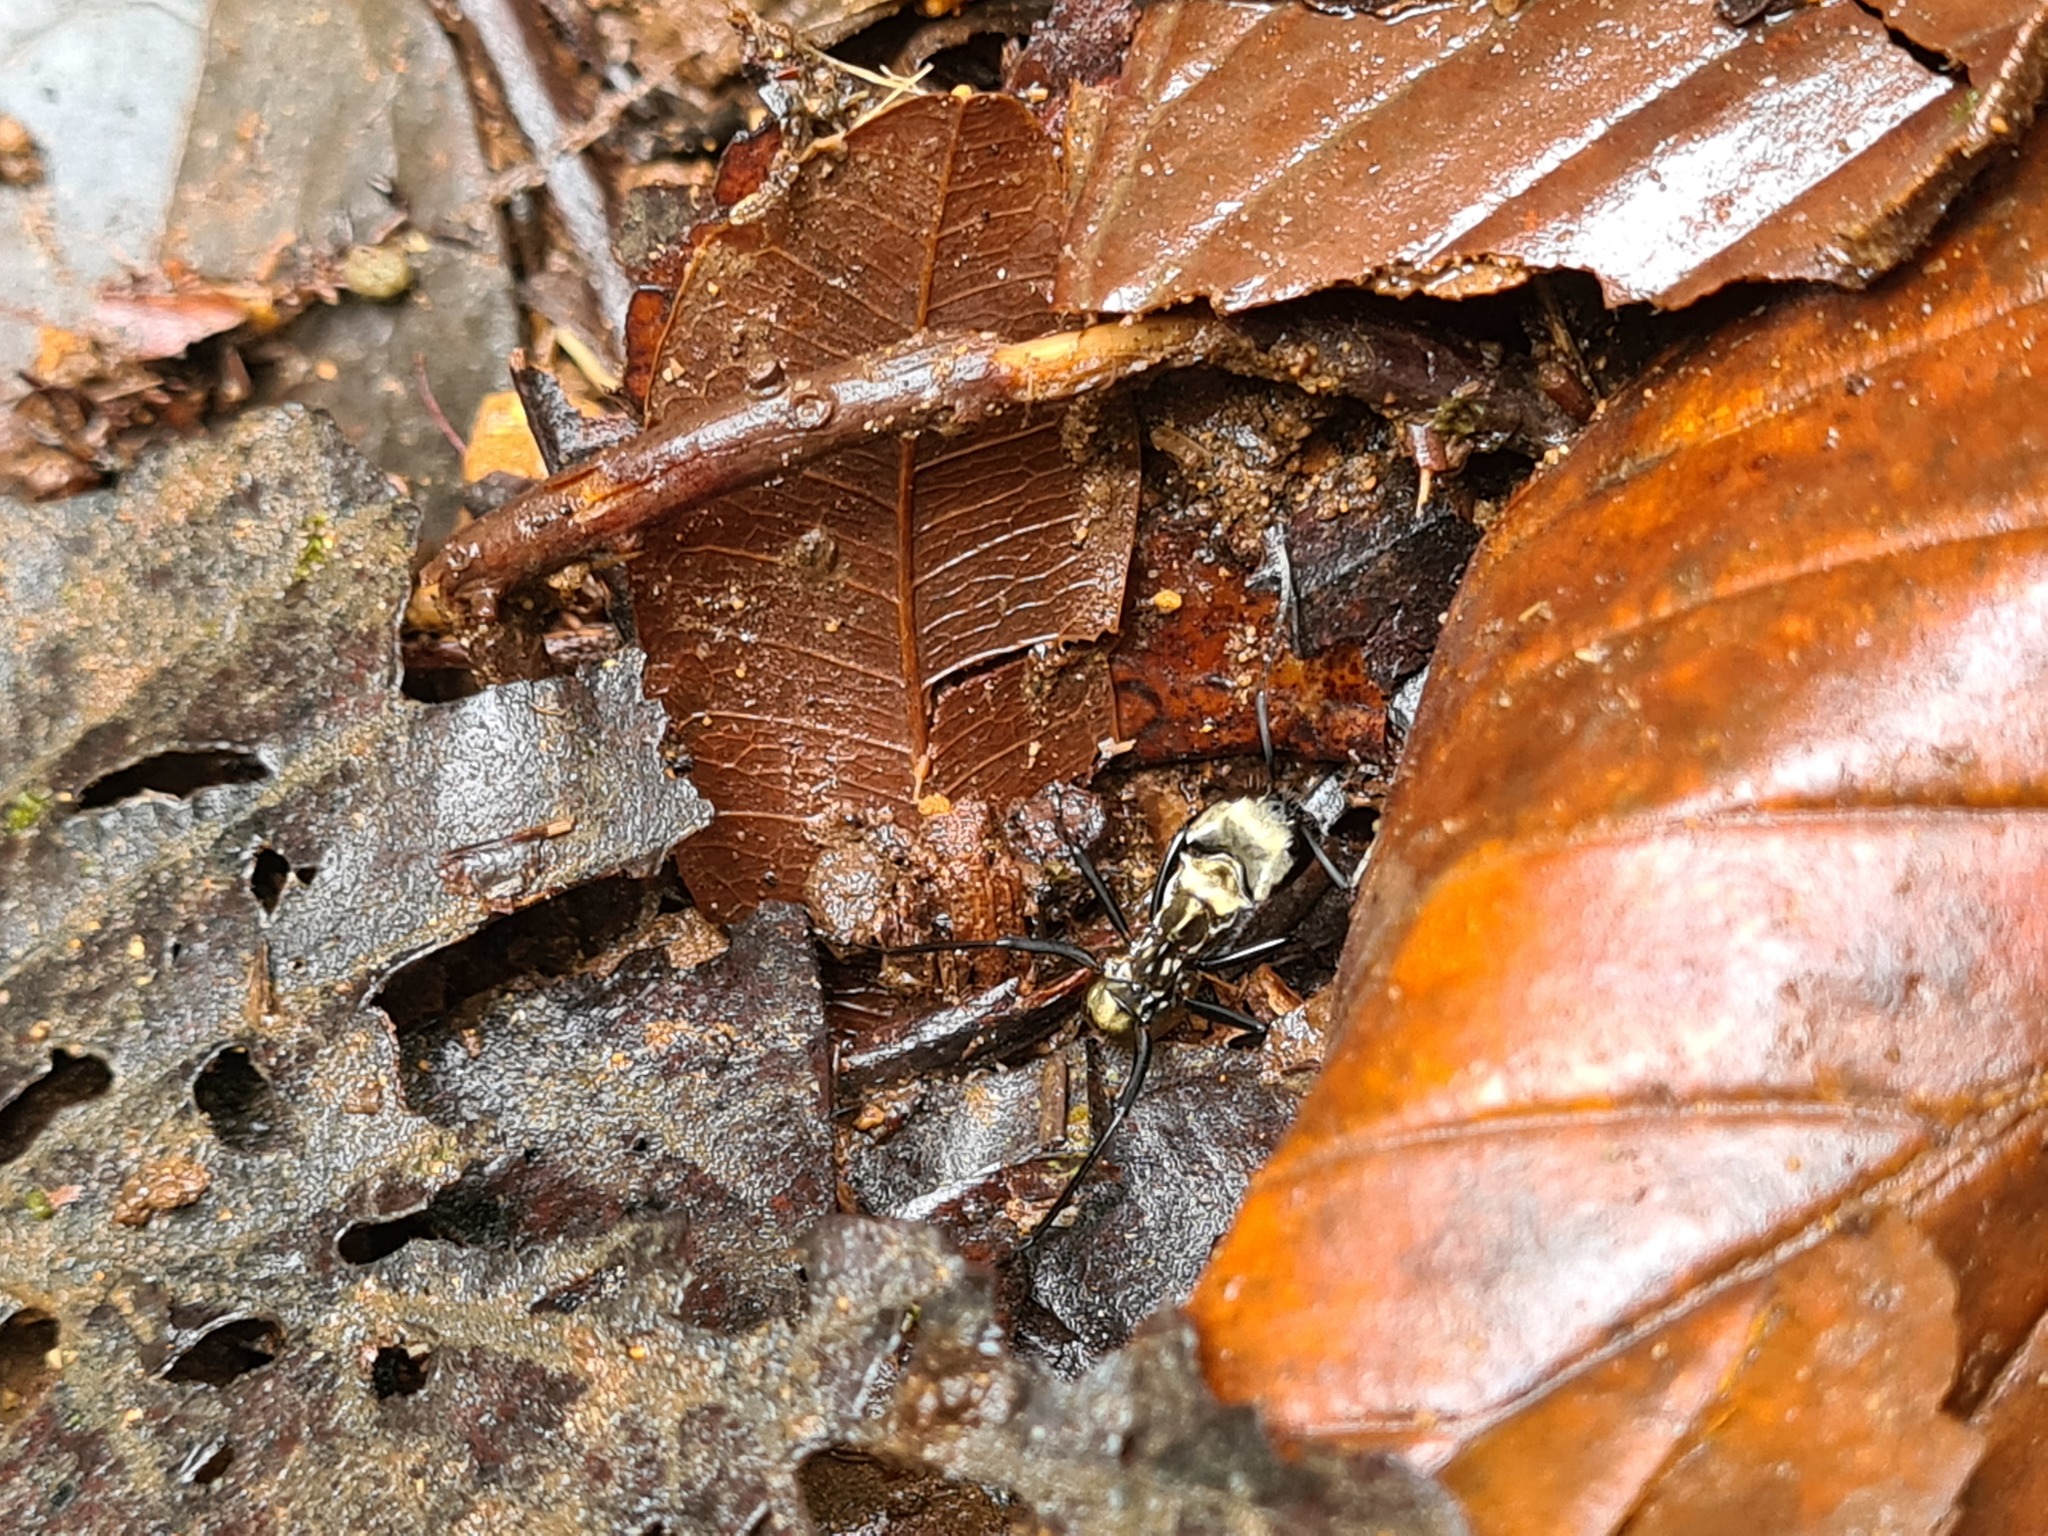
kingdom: Animalia
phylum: Arthropoda
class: Insecta
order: Hymenoptera
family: Formicidae
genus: Camponotus
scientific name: Camponotus sericeiventris
